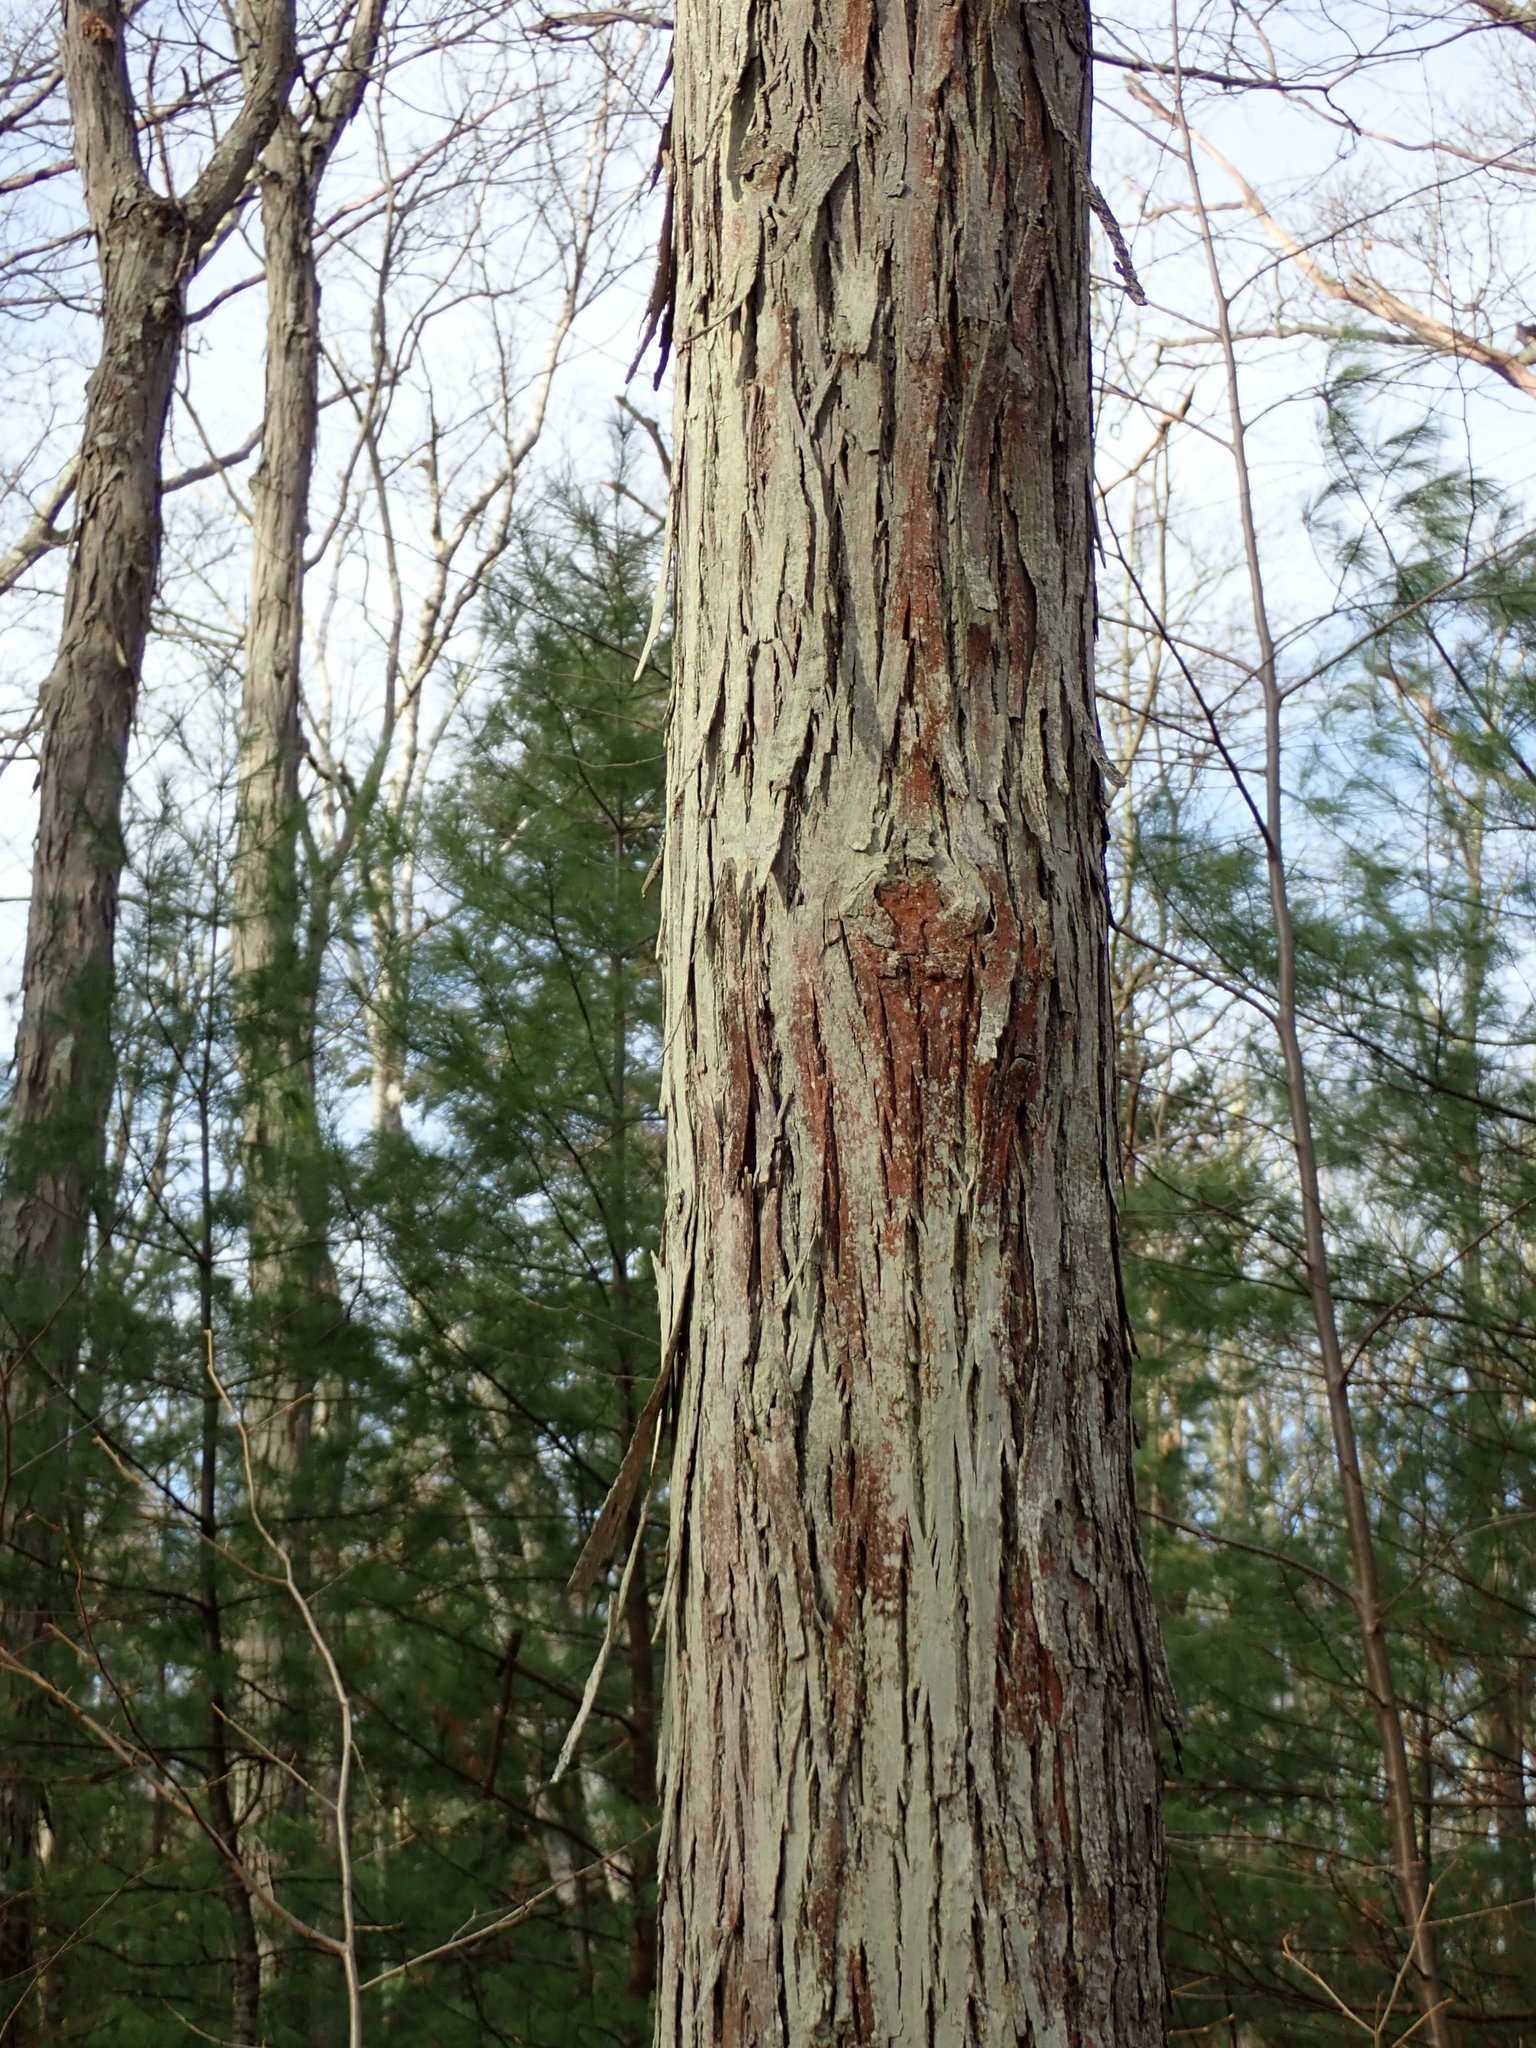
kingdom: Plantae
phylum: Tracheophyta
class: Magnoliopsida
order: Fagales
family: Juglandaceae
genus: Carya
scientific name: Carya ovata
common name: Shagbark hickory
